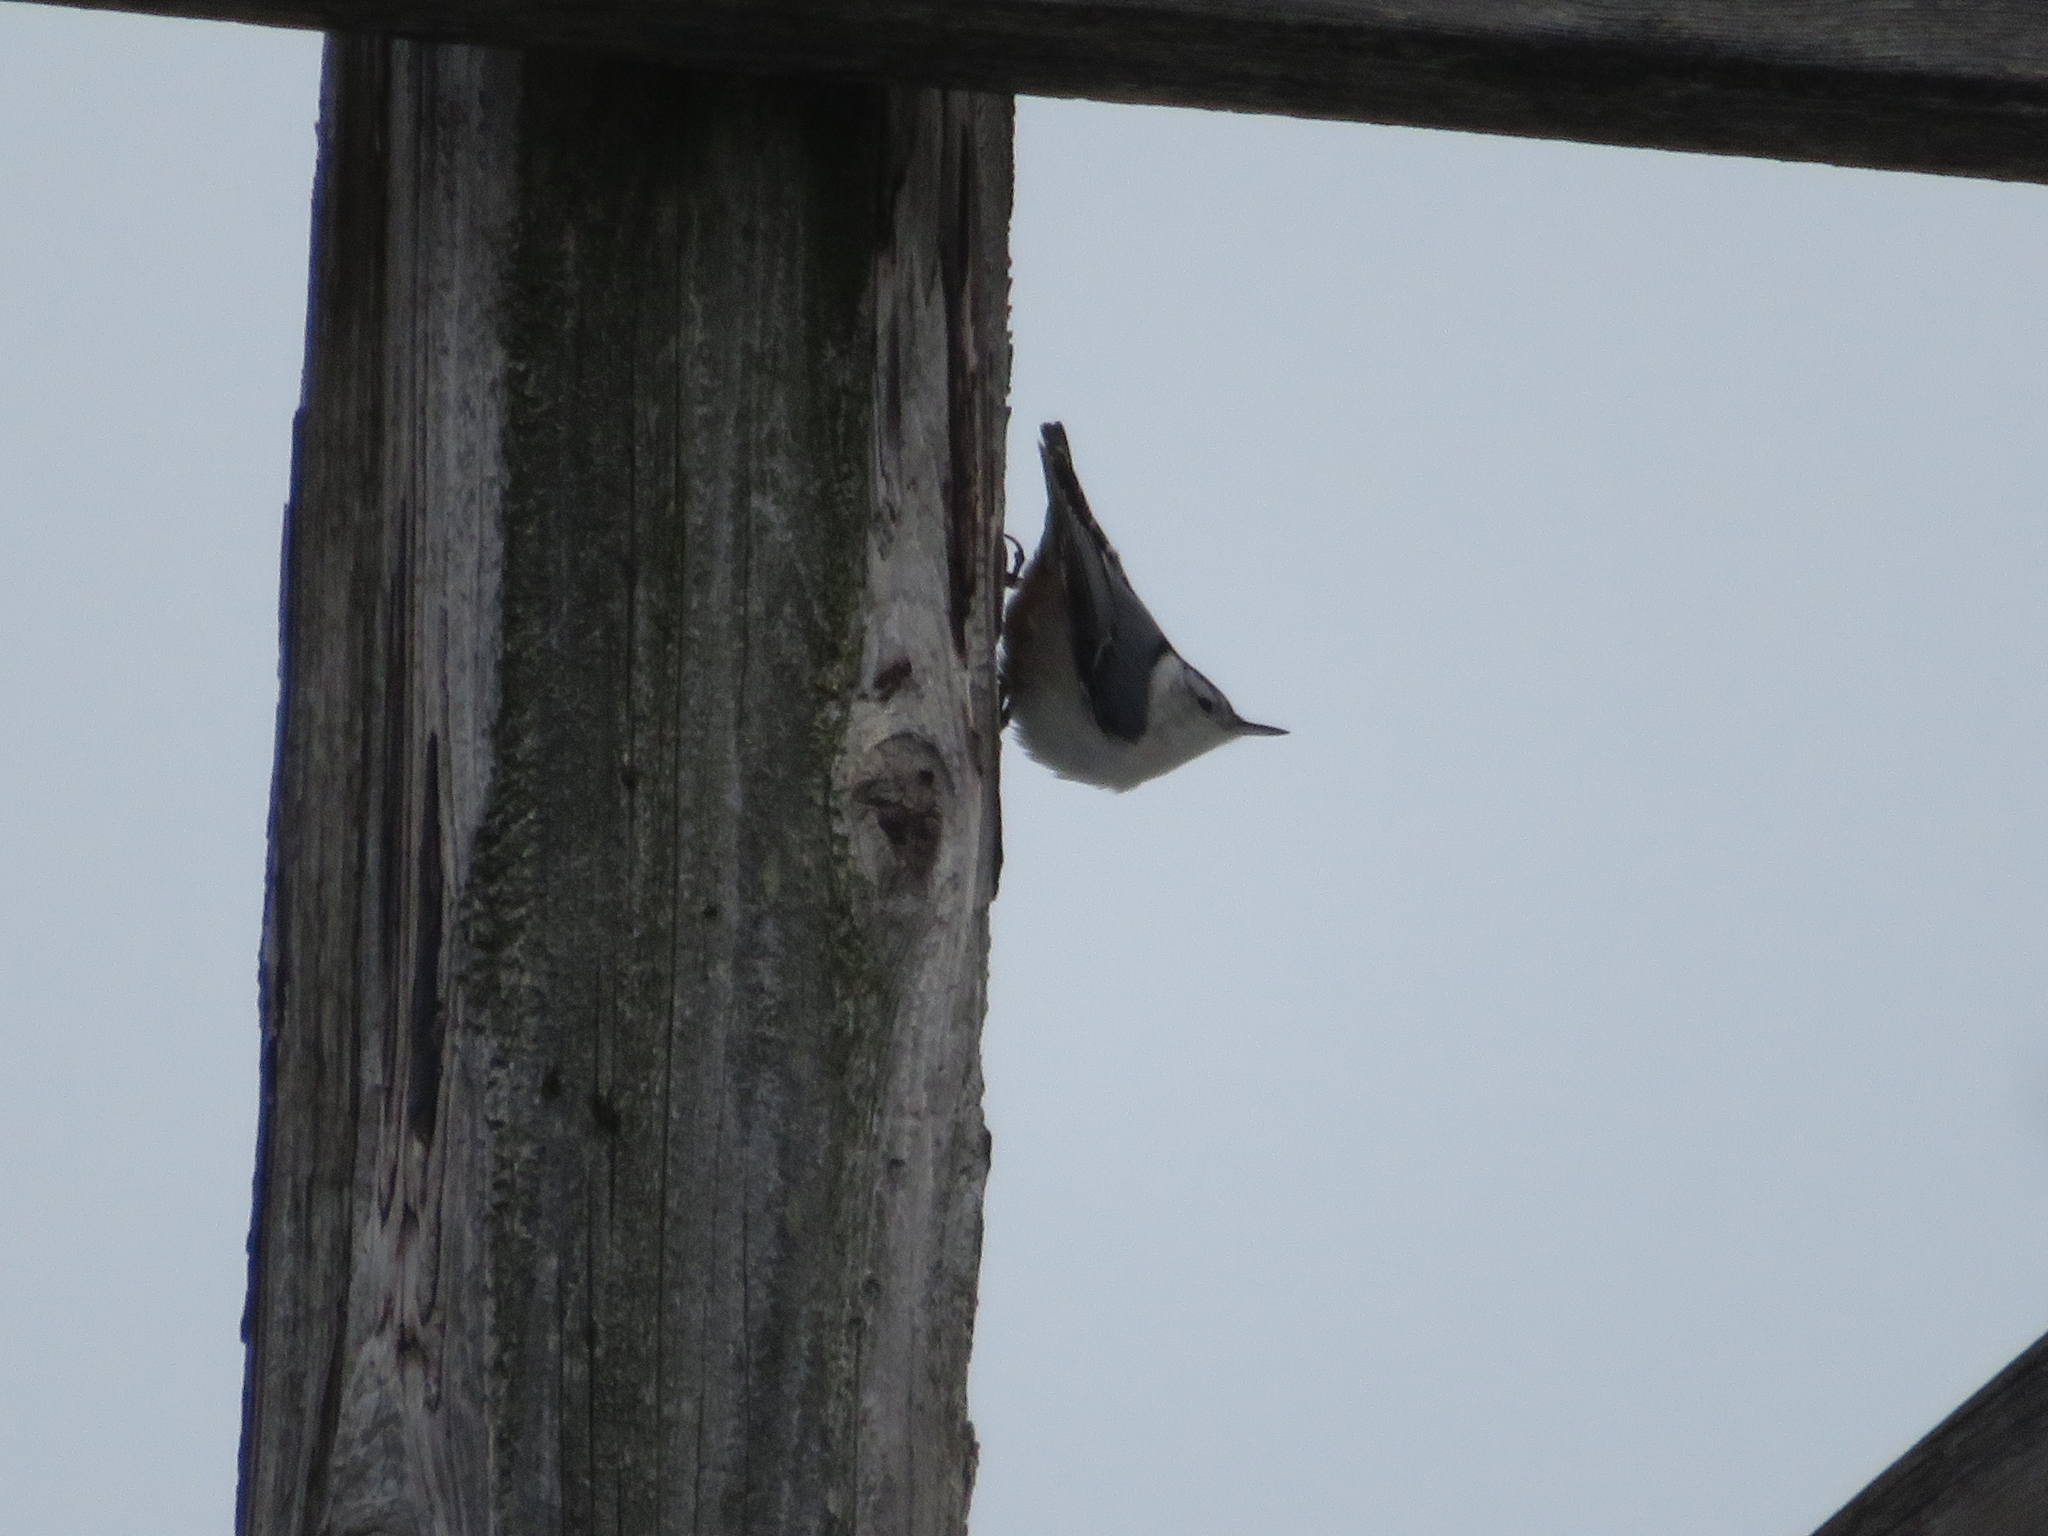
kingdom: Animalia
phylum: Chordata
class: Aves
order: Passeriformes
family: Sittidae
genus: Sitta
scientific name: Sitta carolinensis
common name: White-breasted nuthatch
